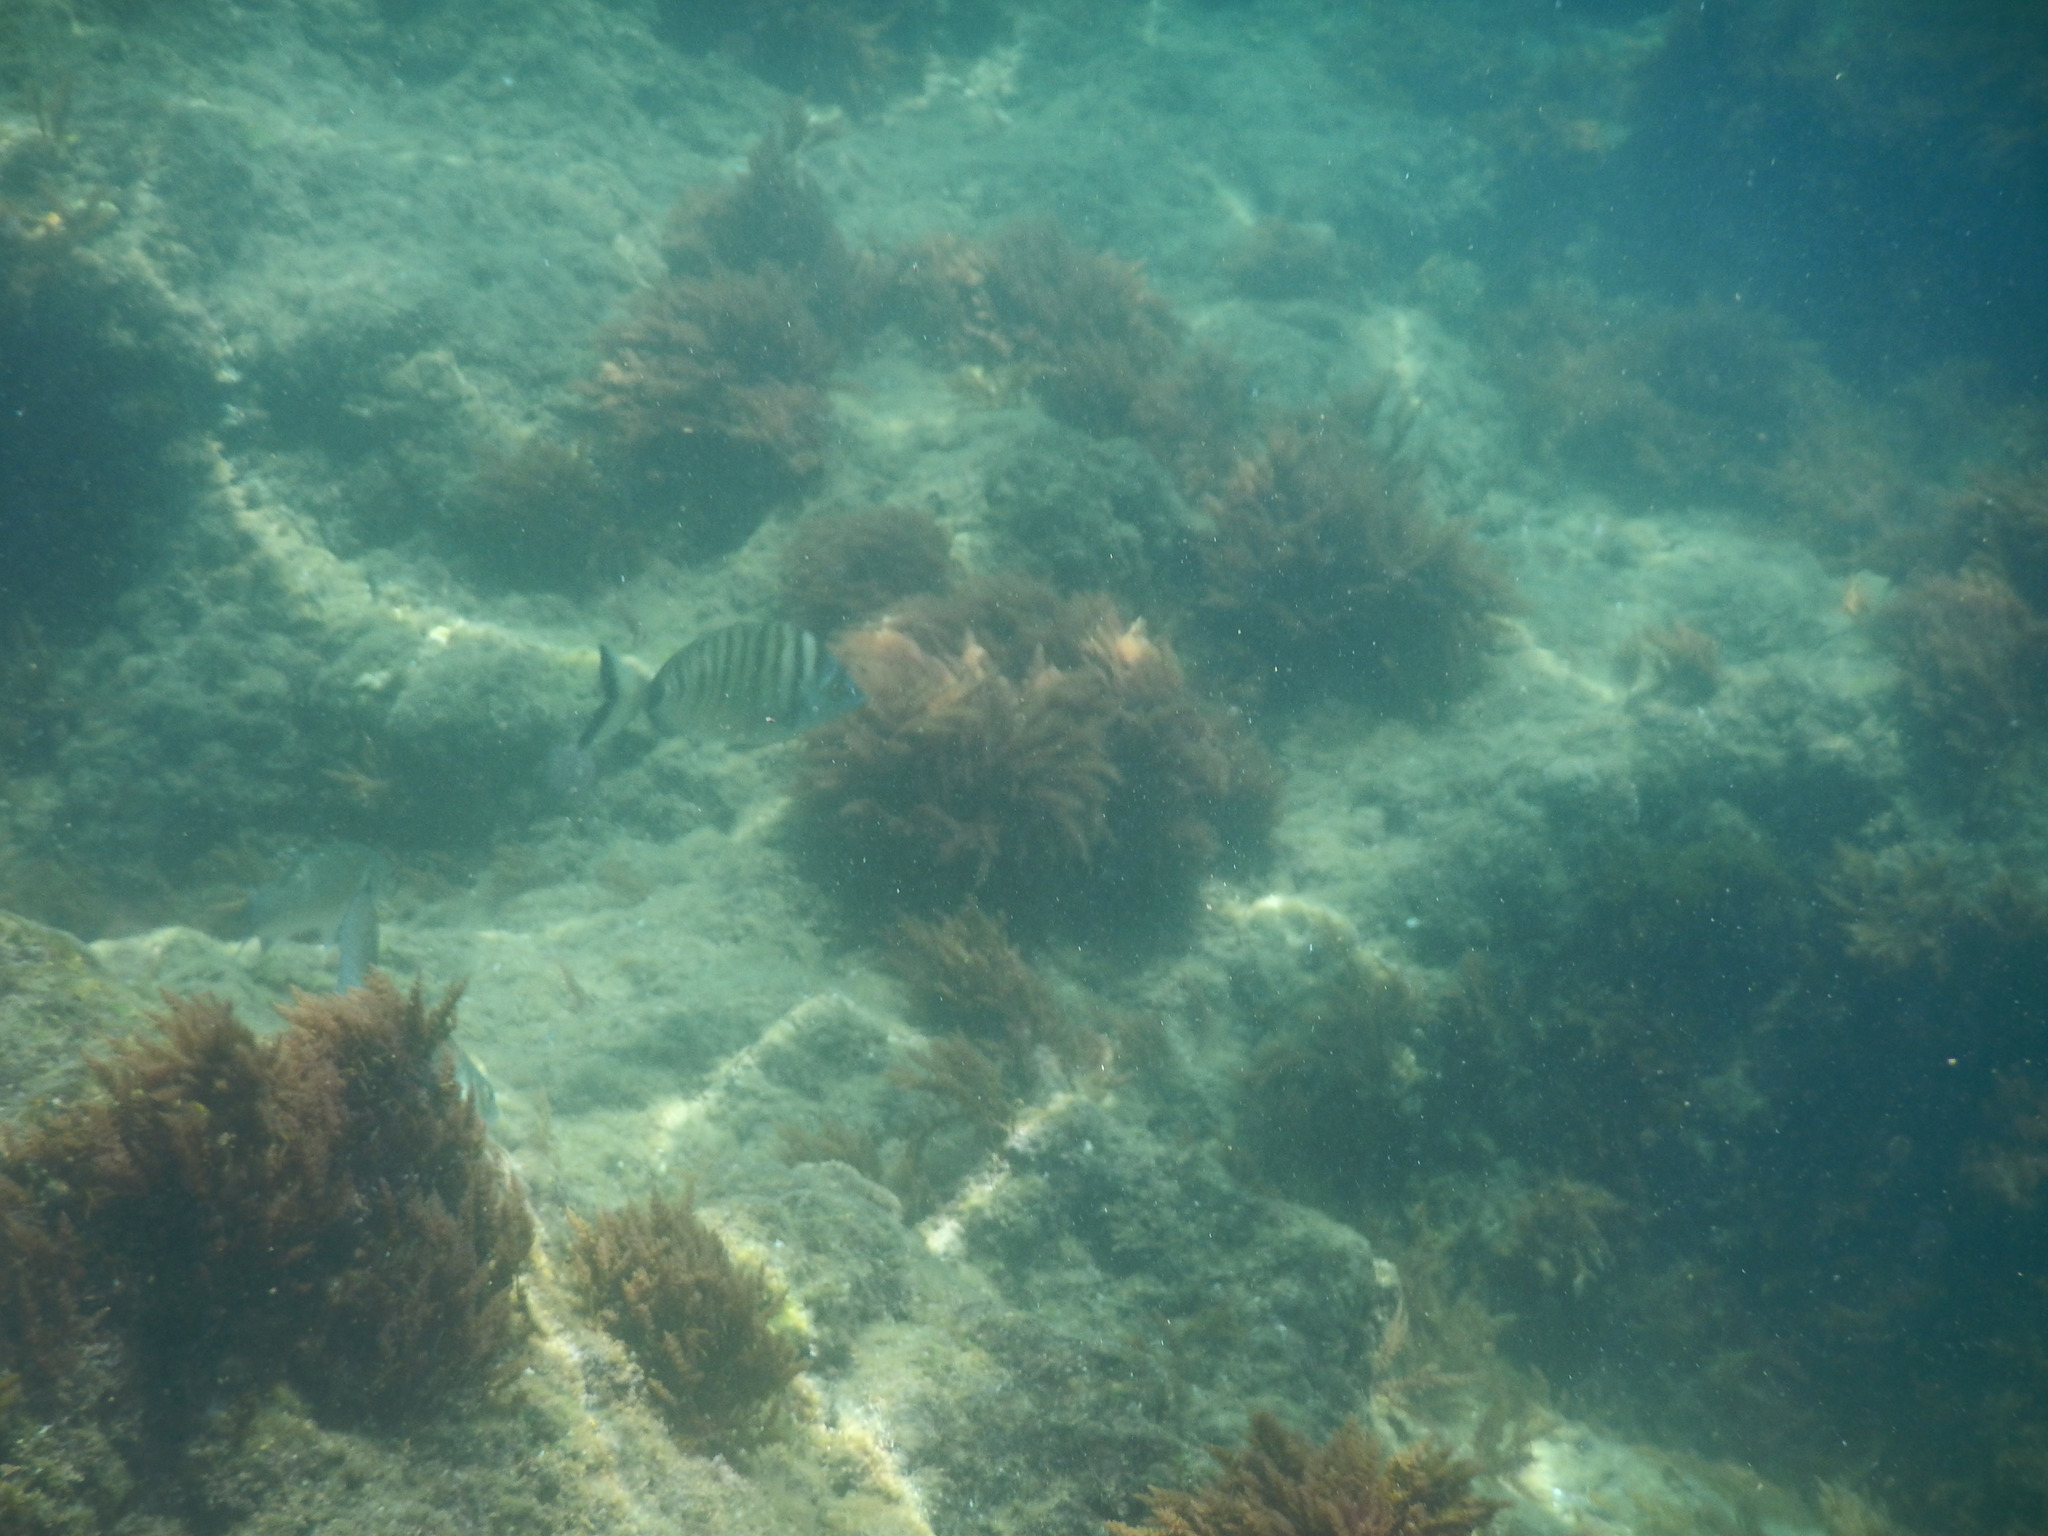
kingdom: Animalia
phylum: Chordata
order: Perciformes
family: Sparidae
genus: Diplodus
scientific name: Diplodus puntazzo
